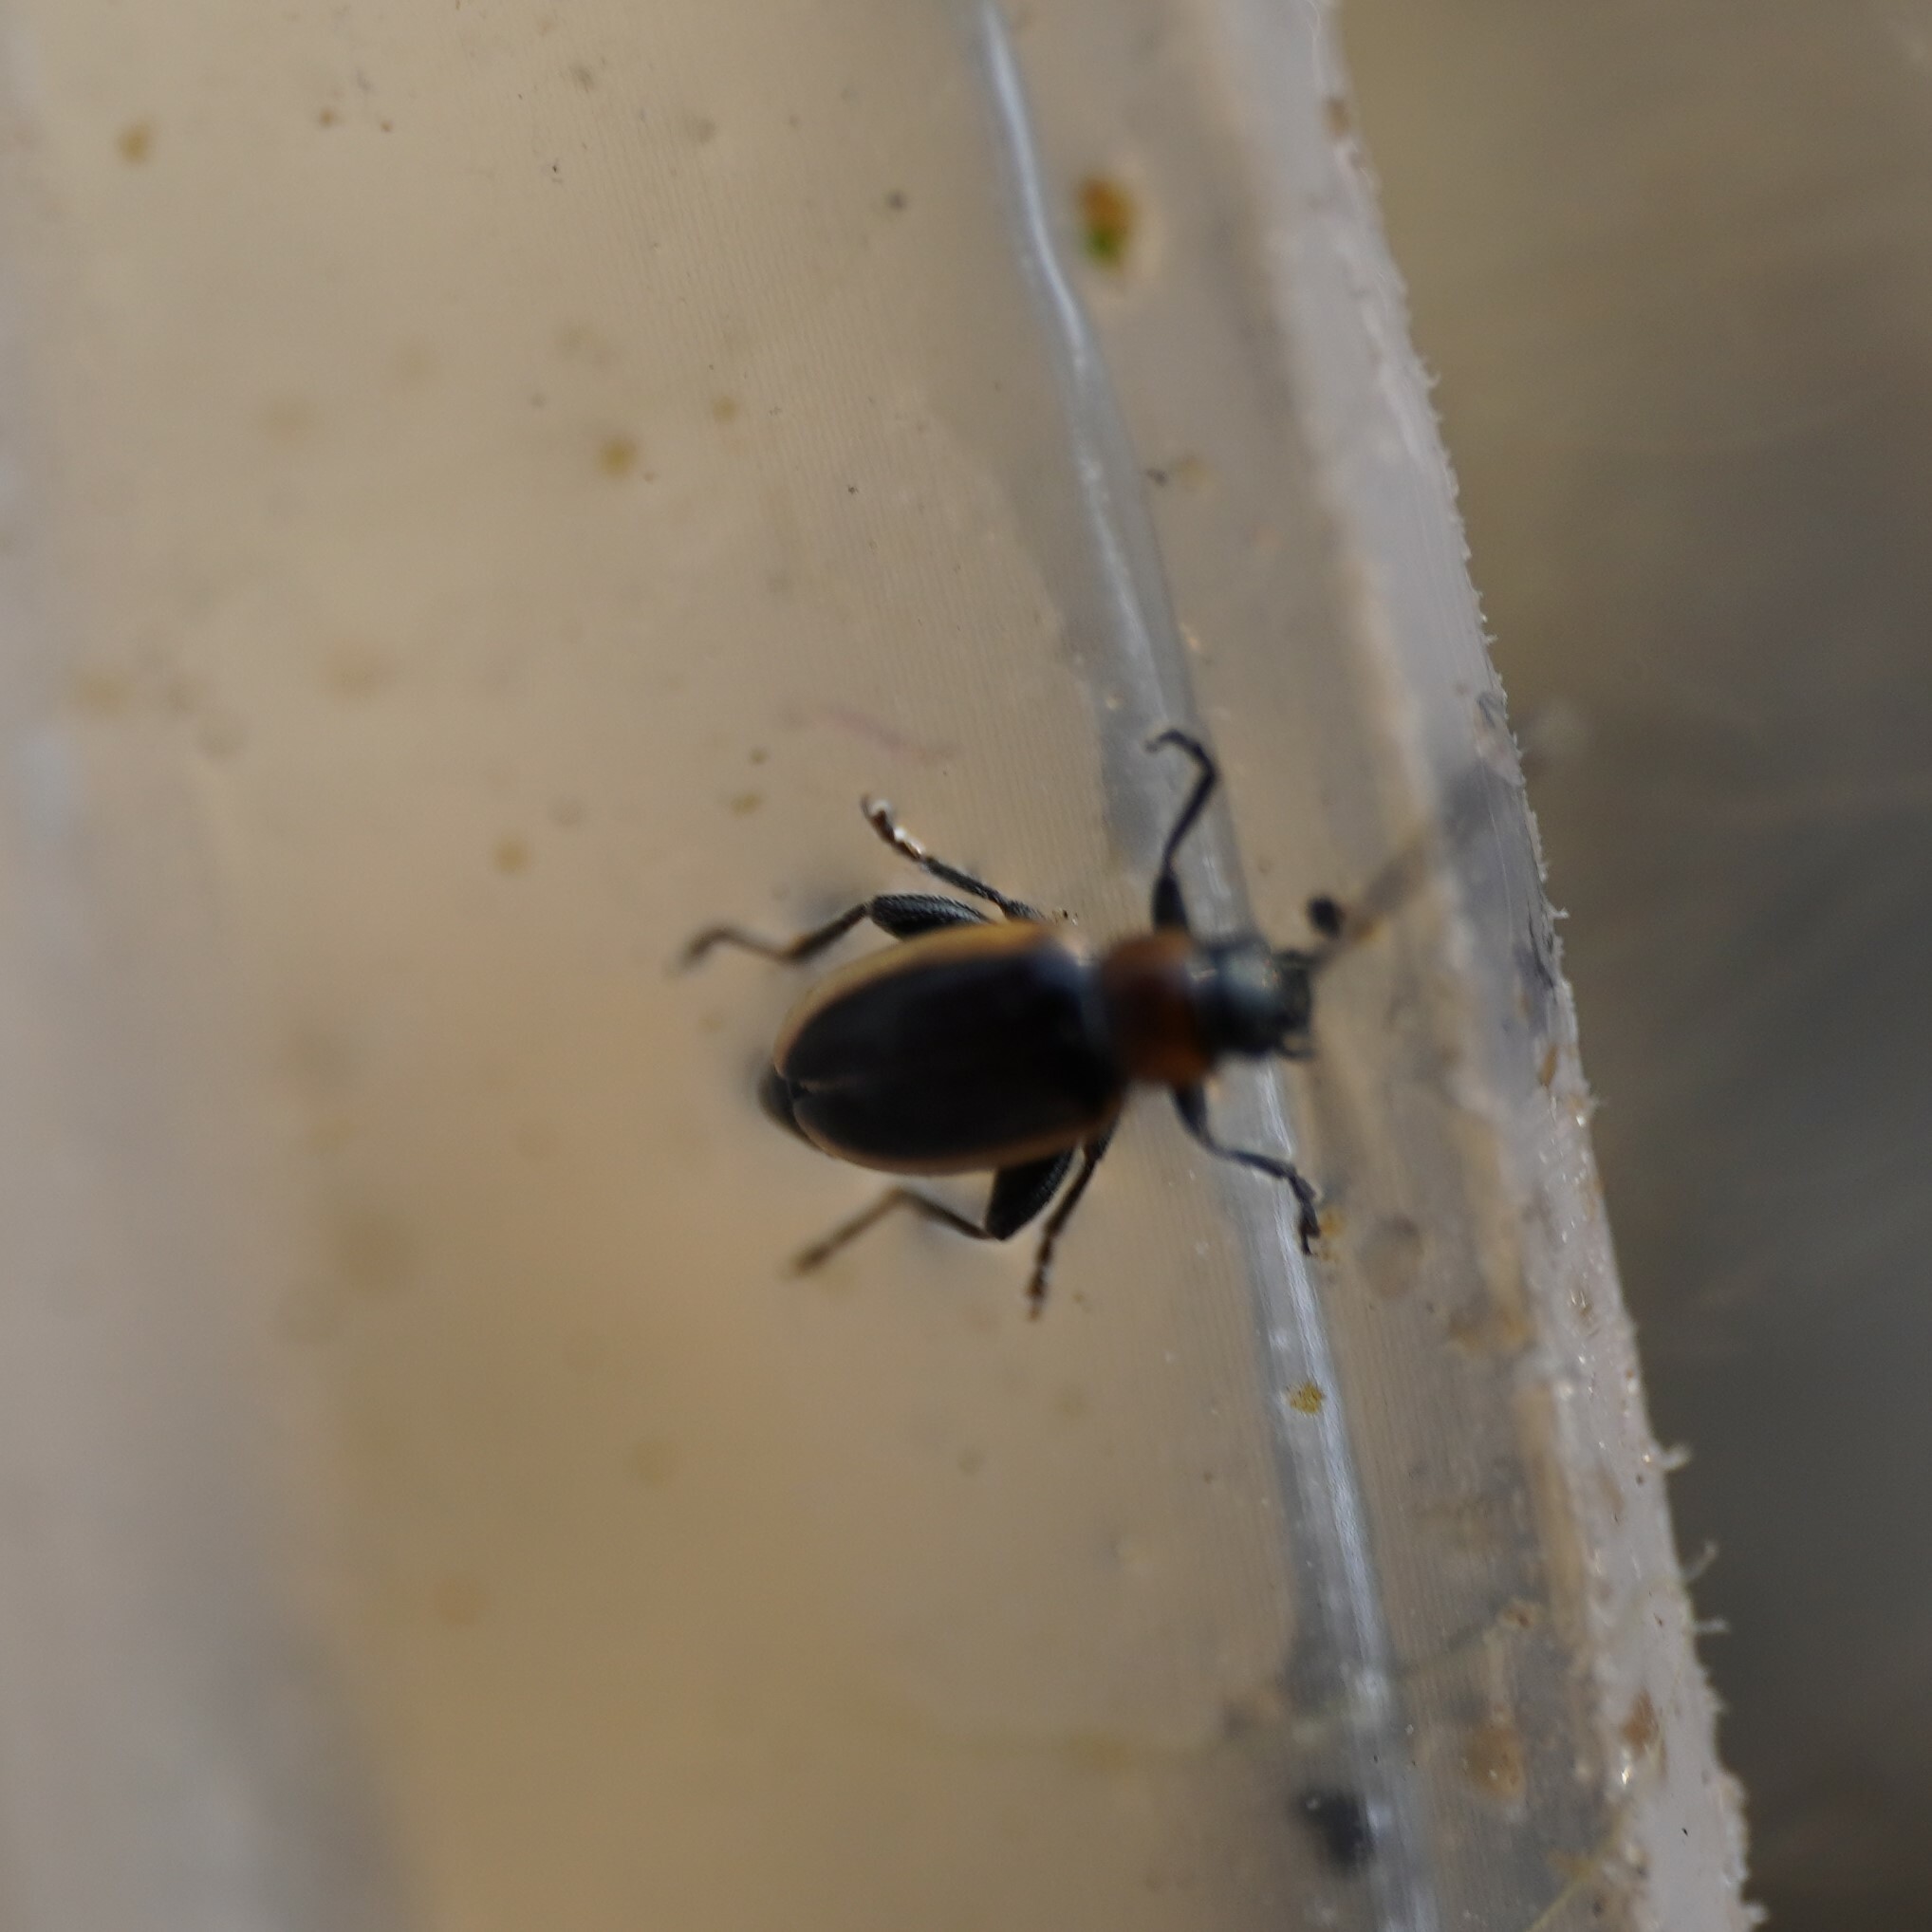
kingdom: Animalia
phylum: Arthropoda
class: Insecta
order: Coleoptera
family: Chrysomelidae
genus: Longitarsus
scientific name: Longitarsus dorsalis
